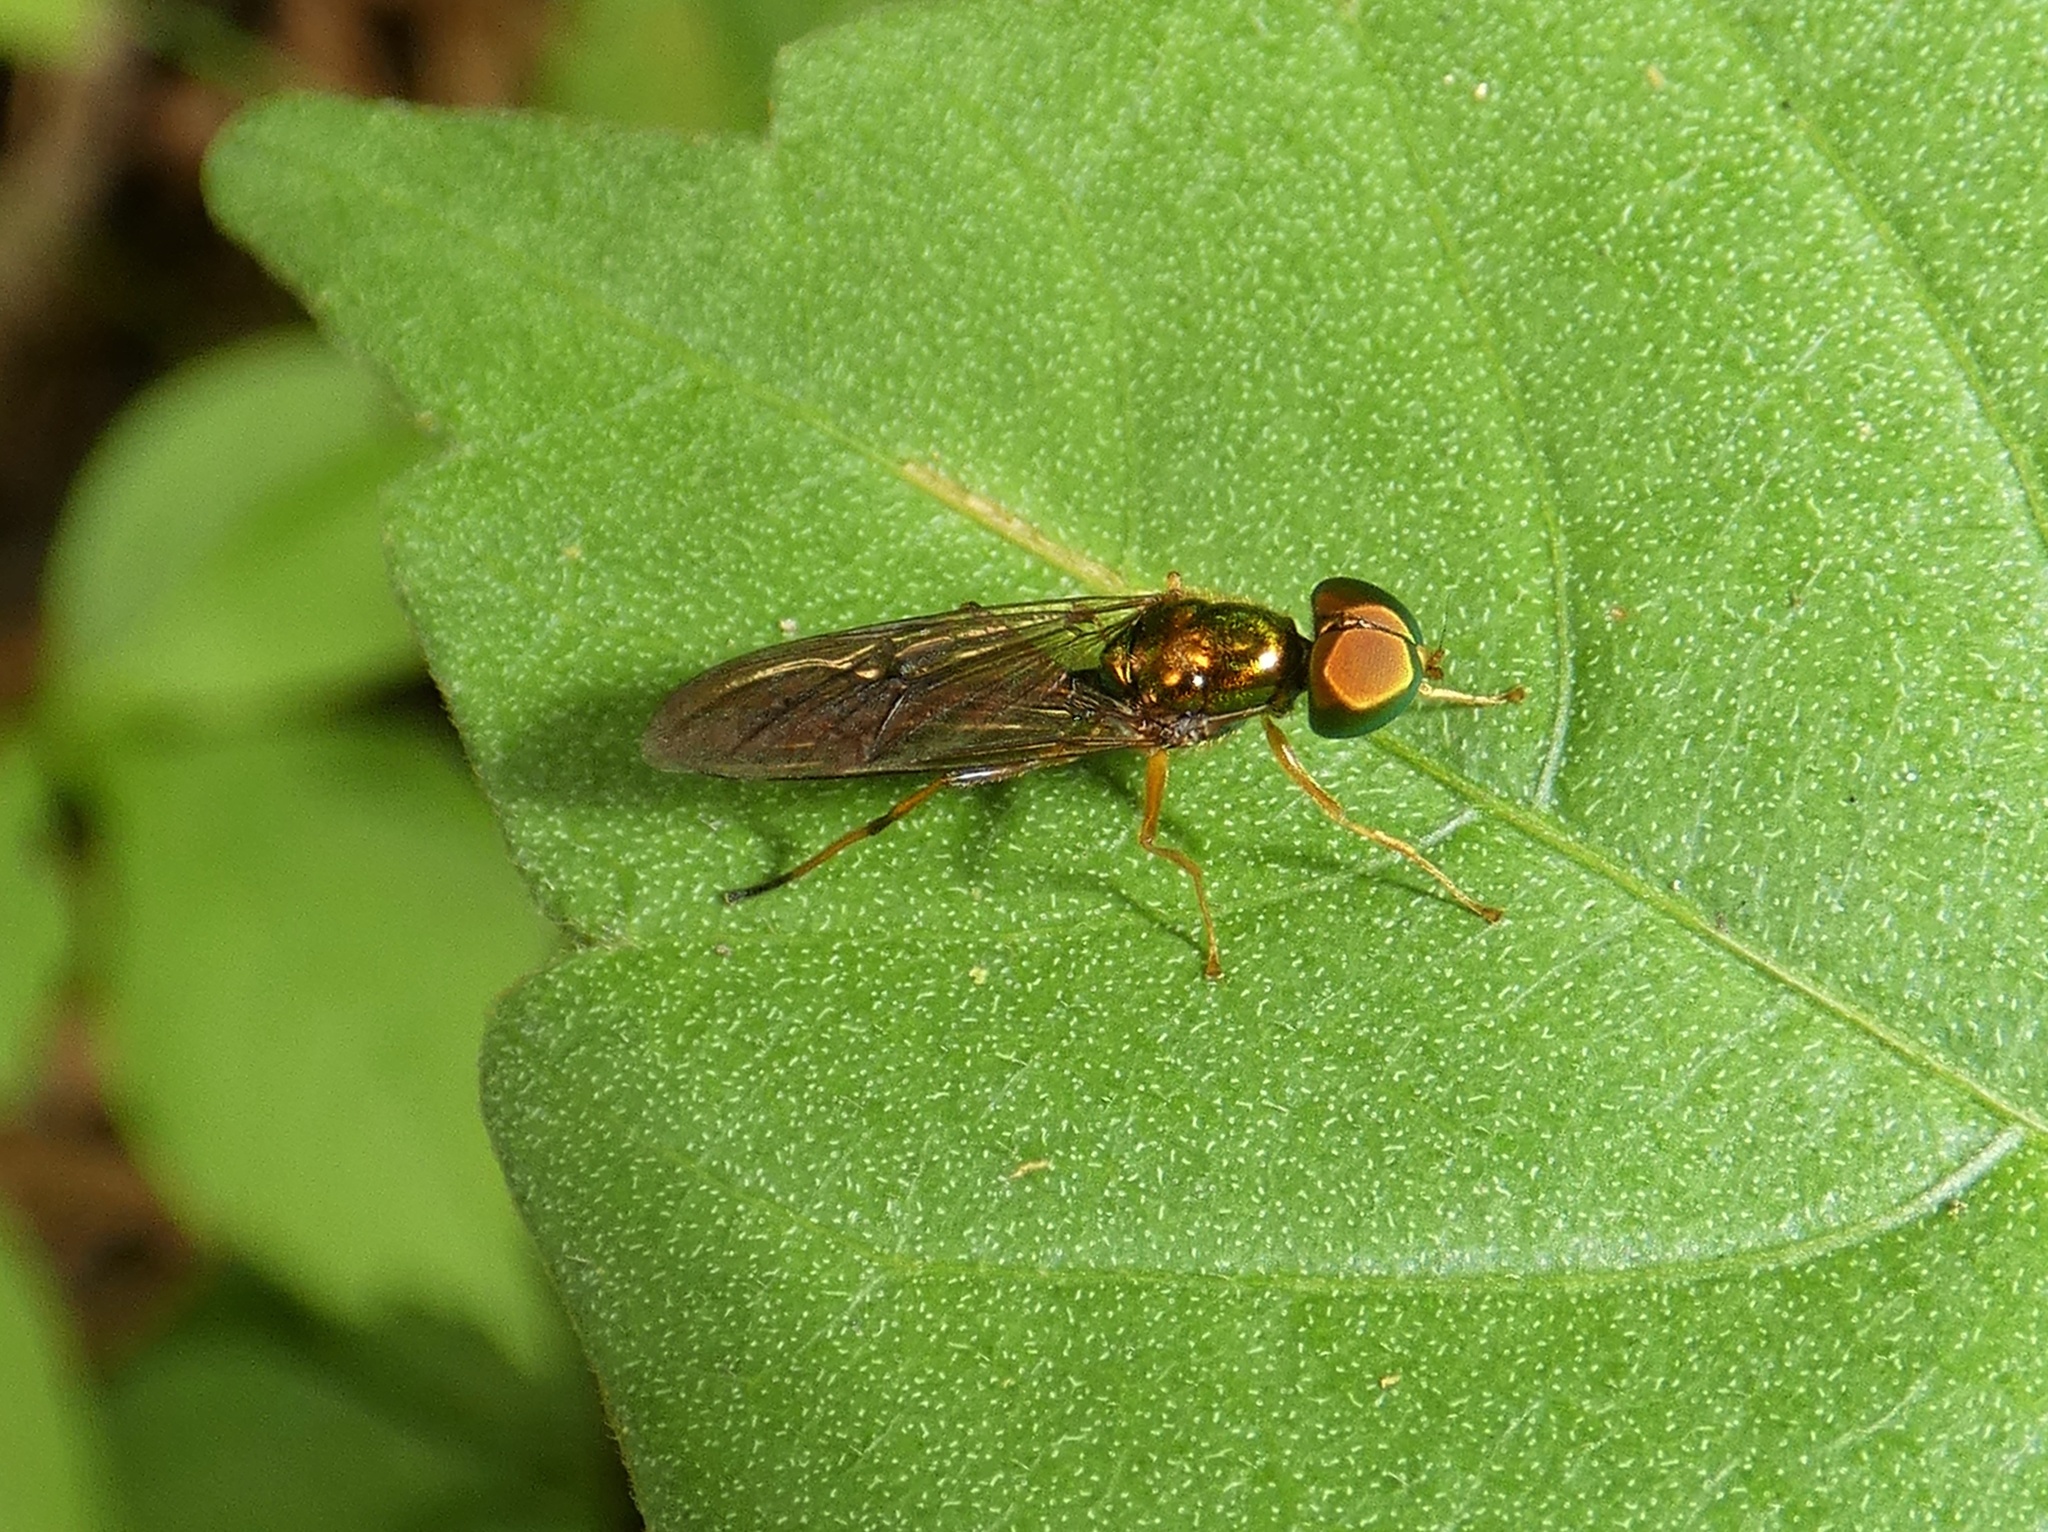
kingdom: Animalia
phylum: Arthropoda
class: Insecta
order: Diptera
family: Stratiomyidae
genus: Sargus
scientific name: Sargus fasciatus
